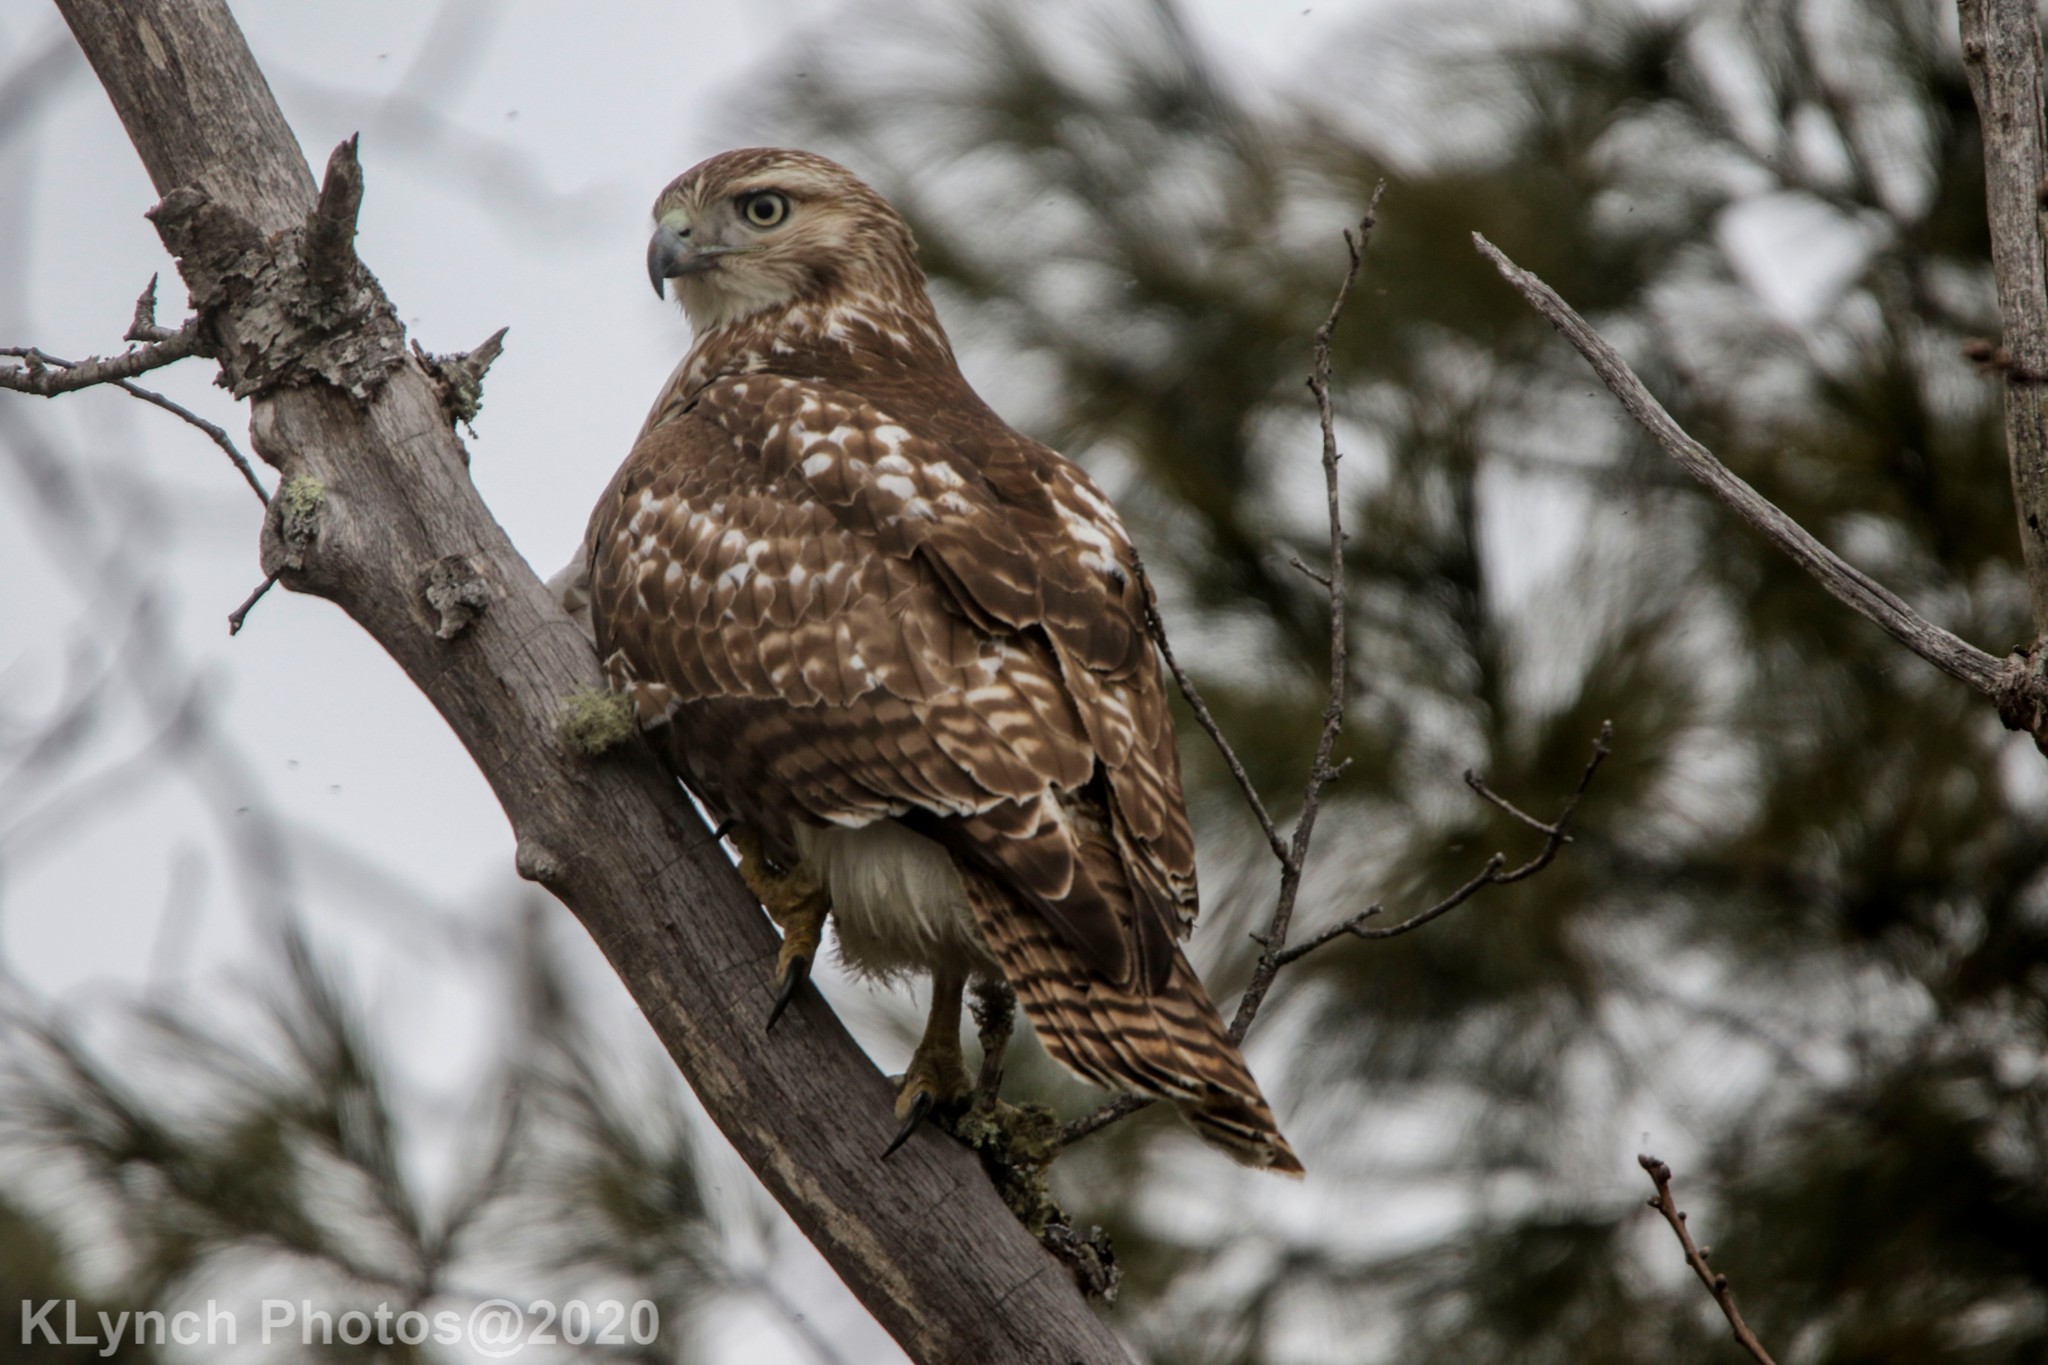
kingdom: Animalia
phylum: Chordata
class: Aves
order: Accipitriformes
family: Accipitridae
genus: Buteo
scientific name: Buteo jamaicensis
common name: Red-tailed hawk
